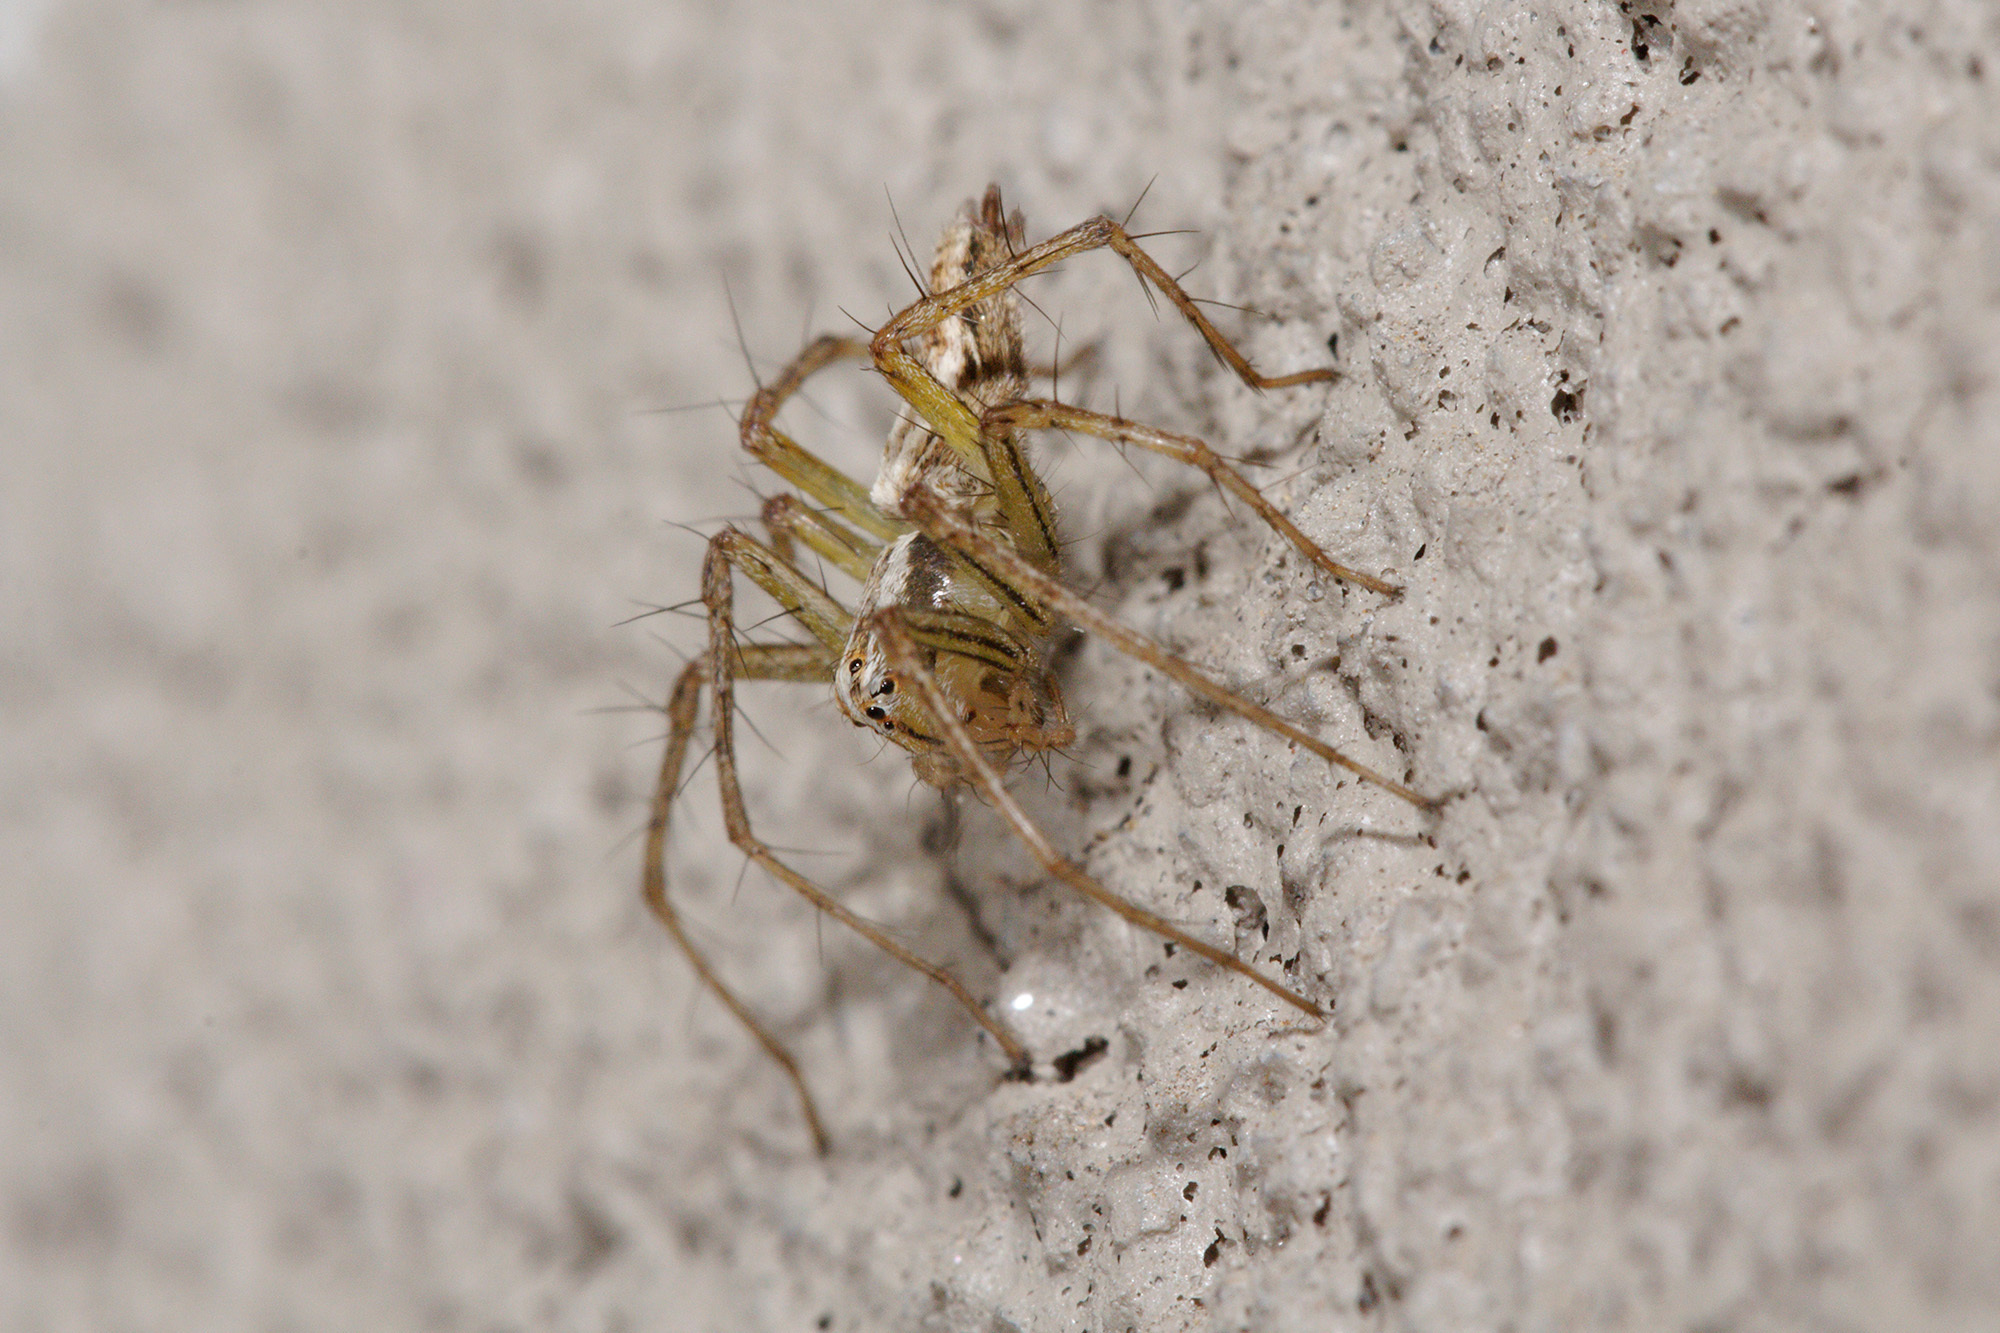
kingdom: Animalia
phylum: Arthropoda
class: Arachnida
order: Araneae
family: Oxyopidae
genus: Oxyopes
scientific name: Oxyopes gracilipes
